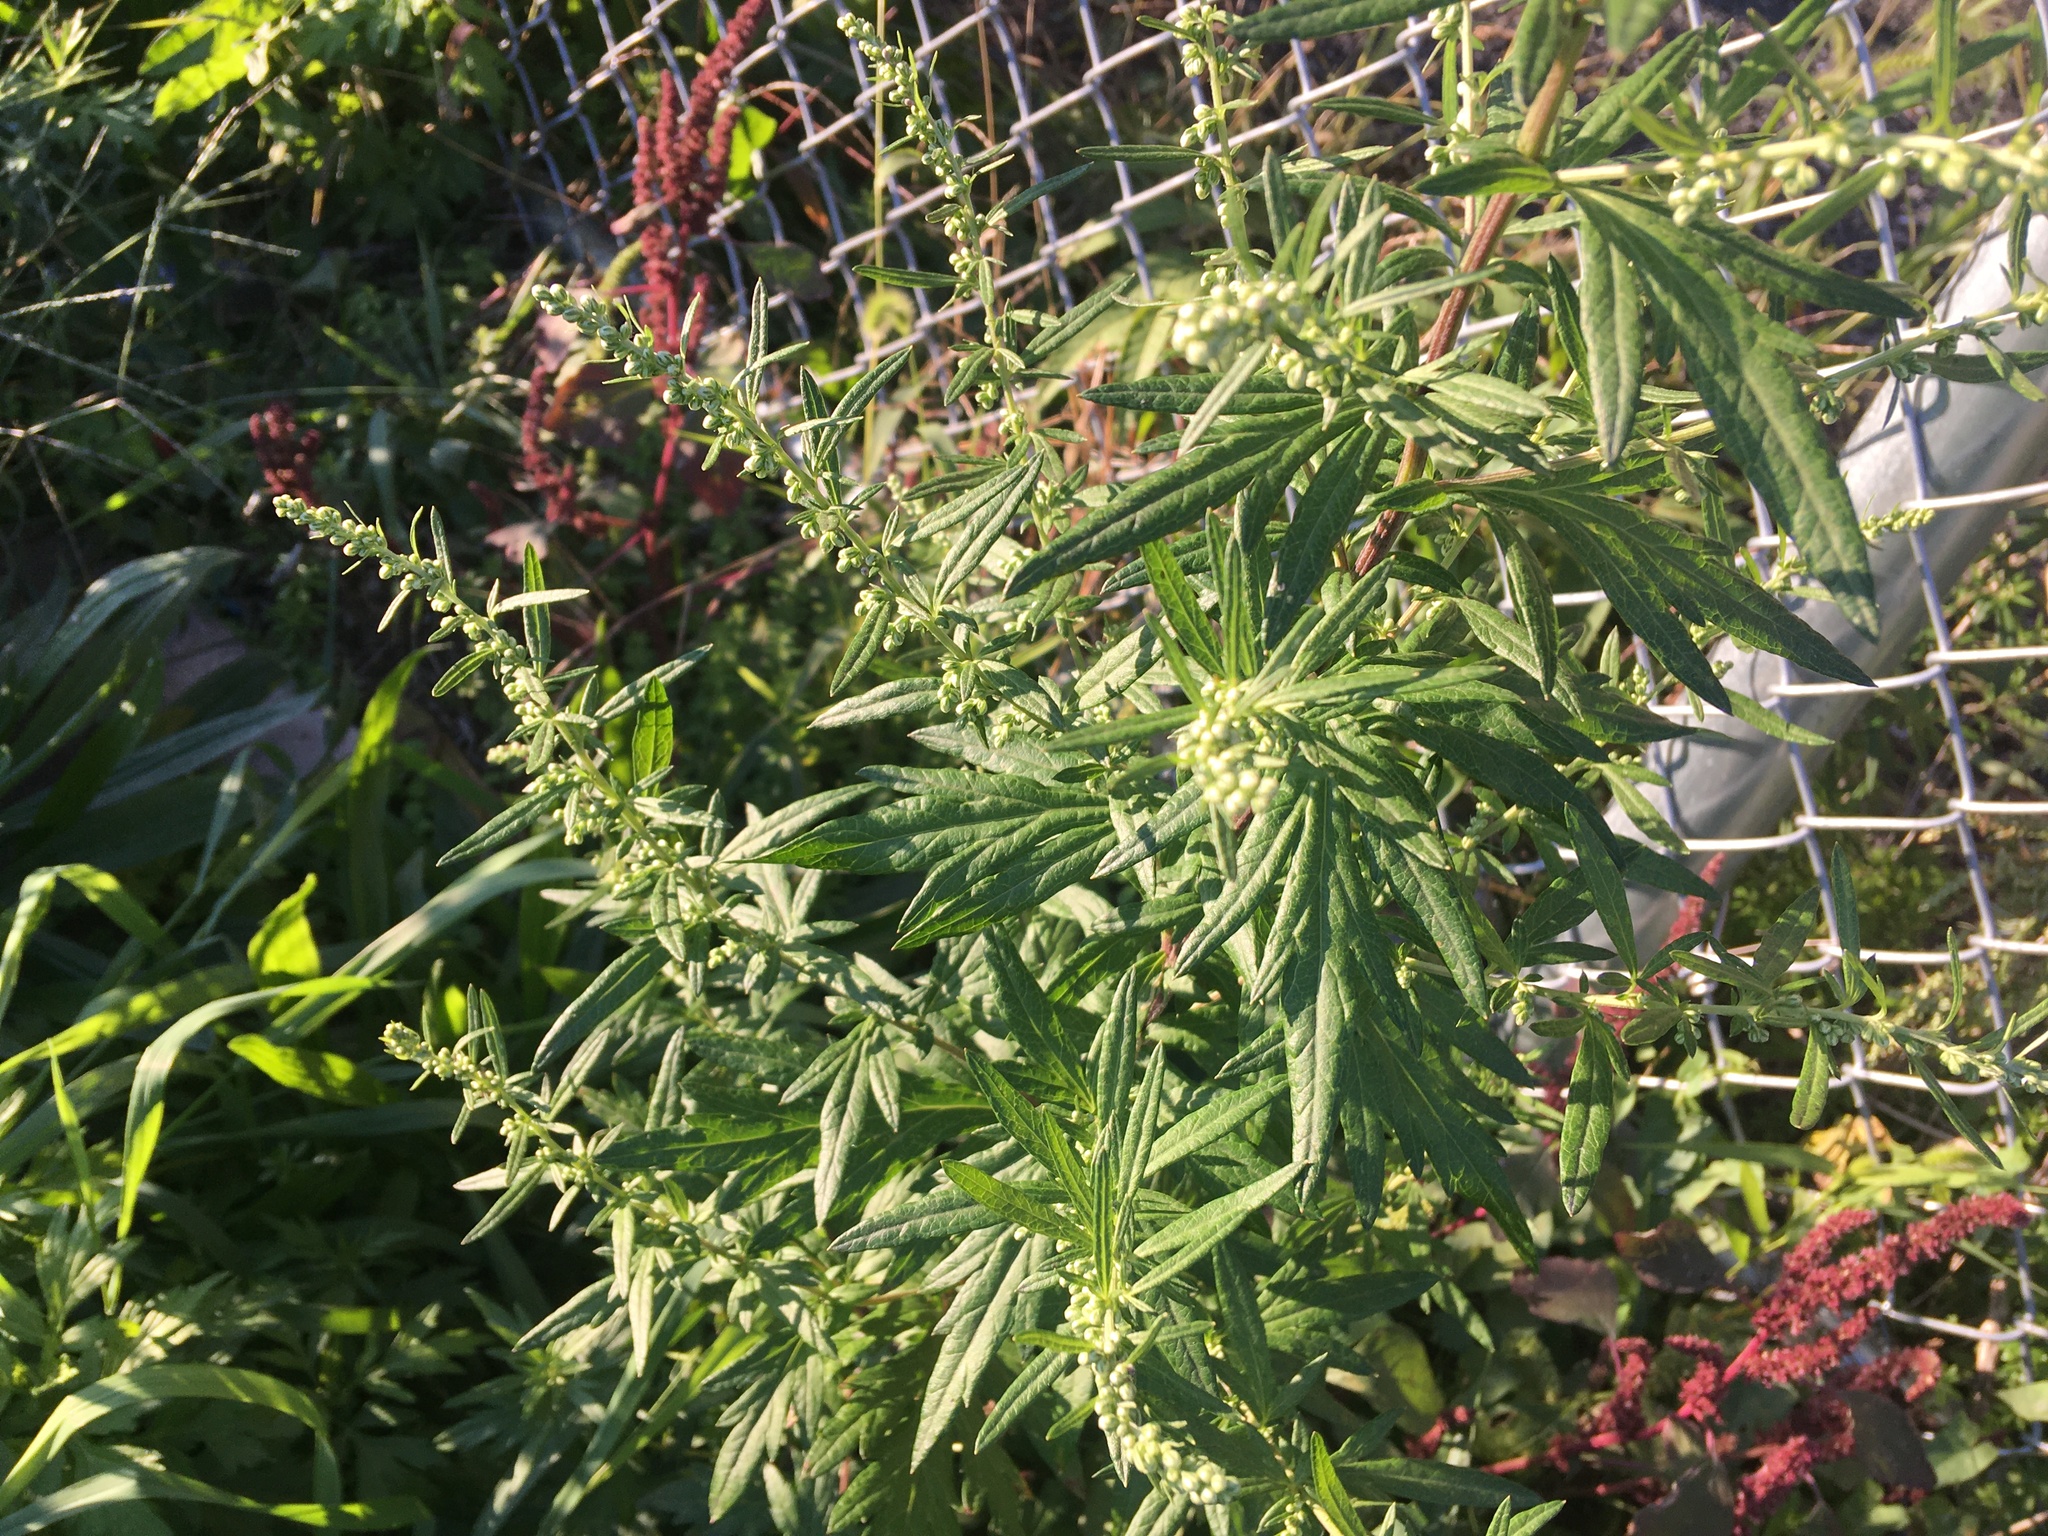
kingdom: Plantae
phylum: Tracheophyta
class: Magnoliopsida
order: Asterales
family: Asteraceae
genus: Artemisia
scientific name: Artemisia vulgaris
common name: Mugwort
